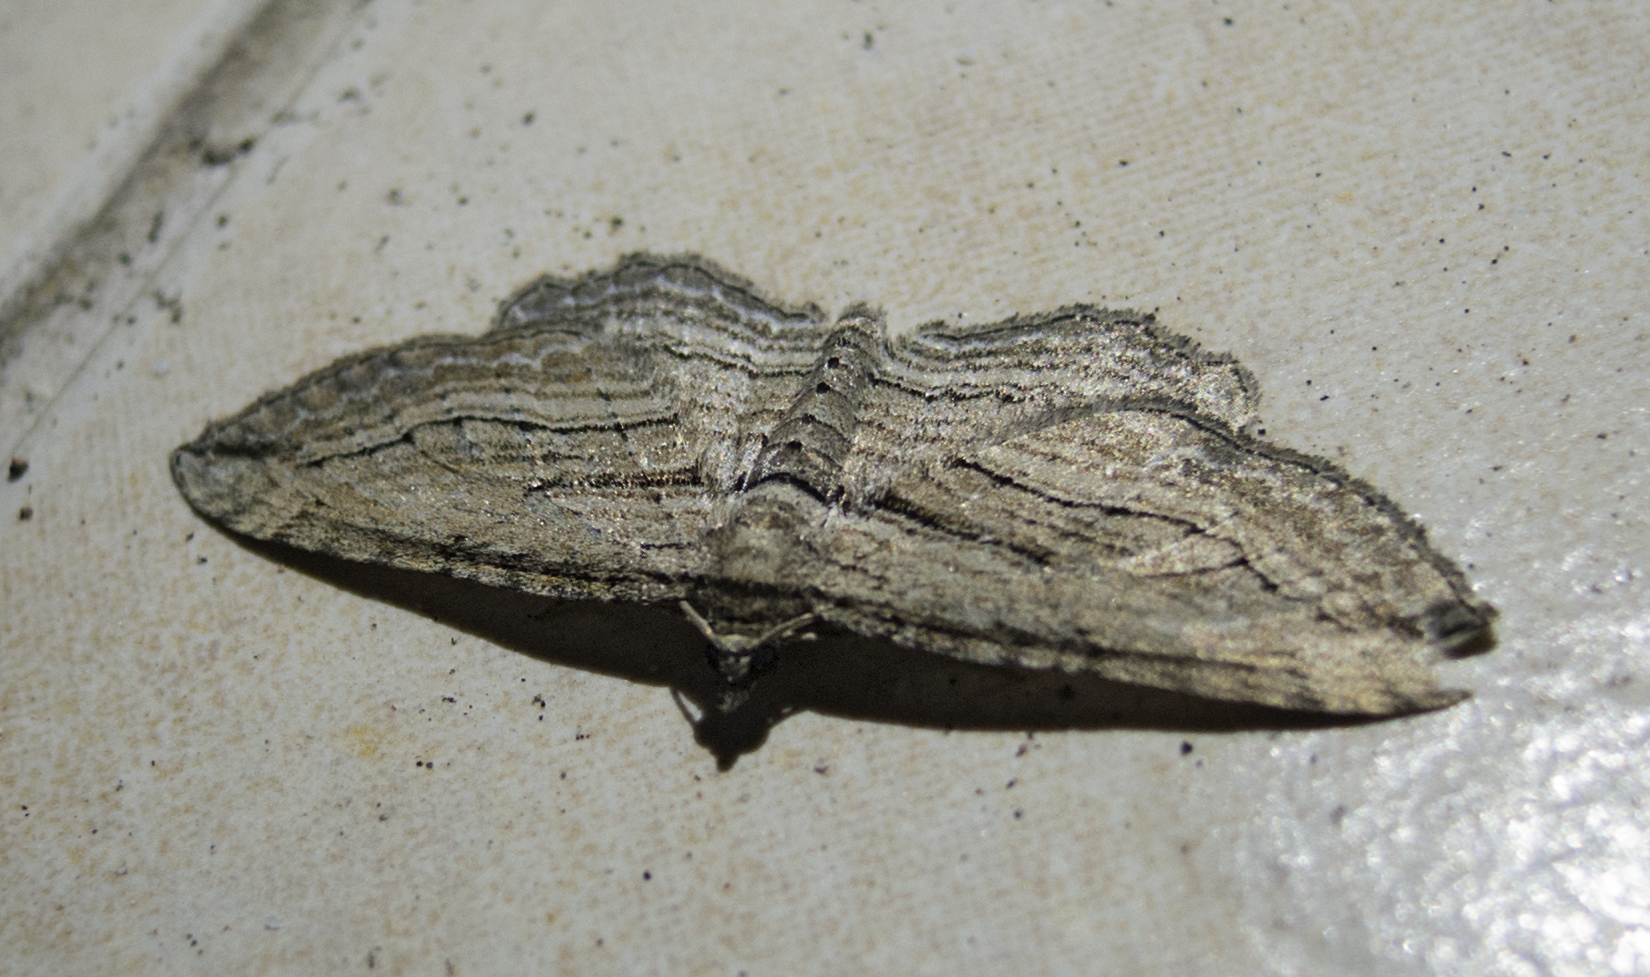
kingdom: Animalia
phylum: Arthropoda
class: Insecta
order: Lepidoptera
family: Geometridae
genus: Horisme
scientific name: Horisme corticata
